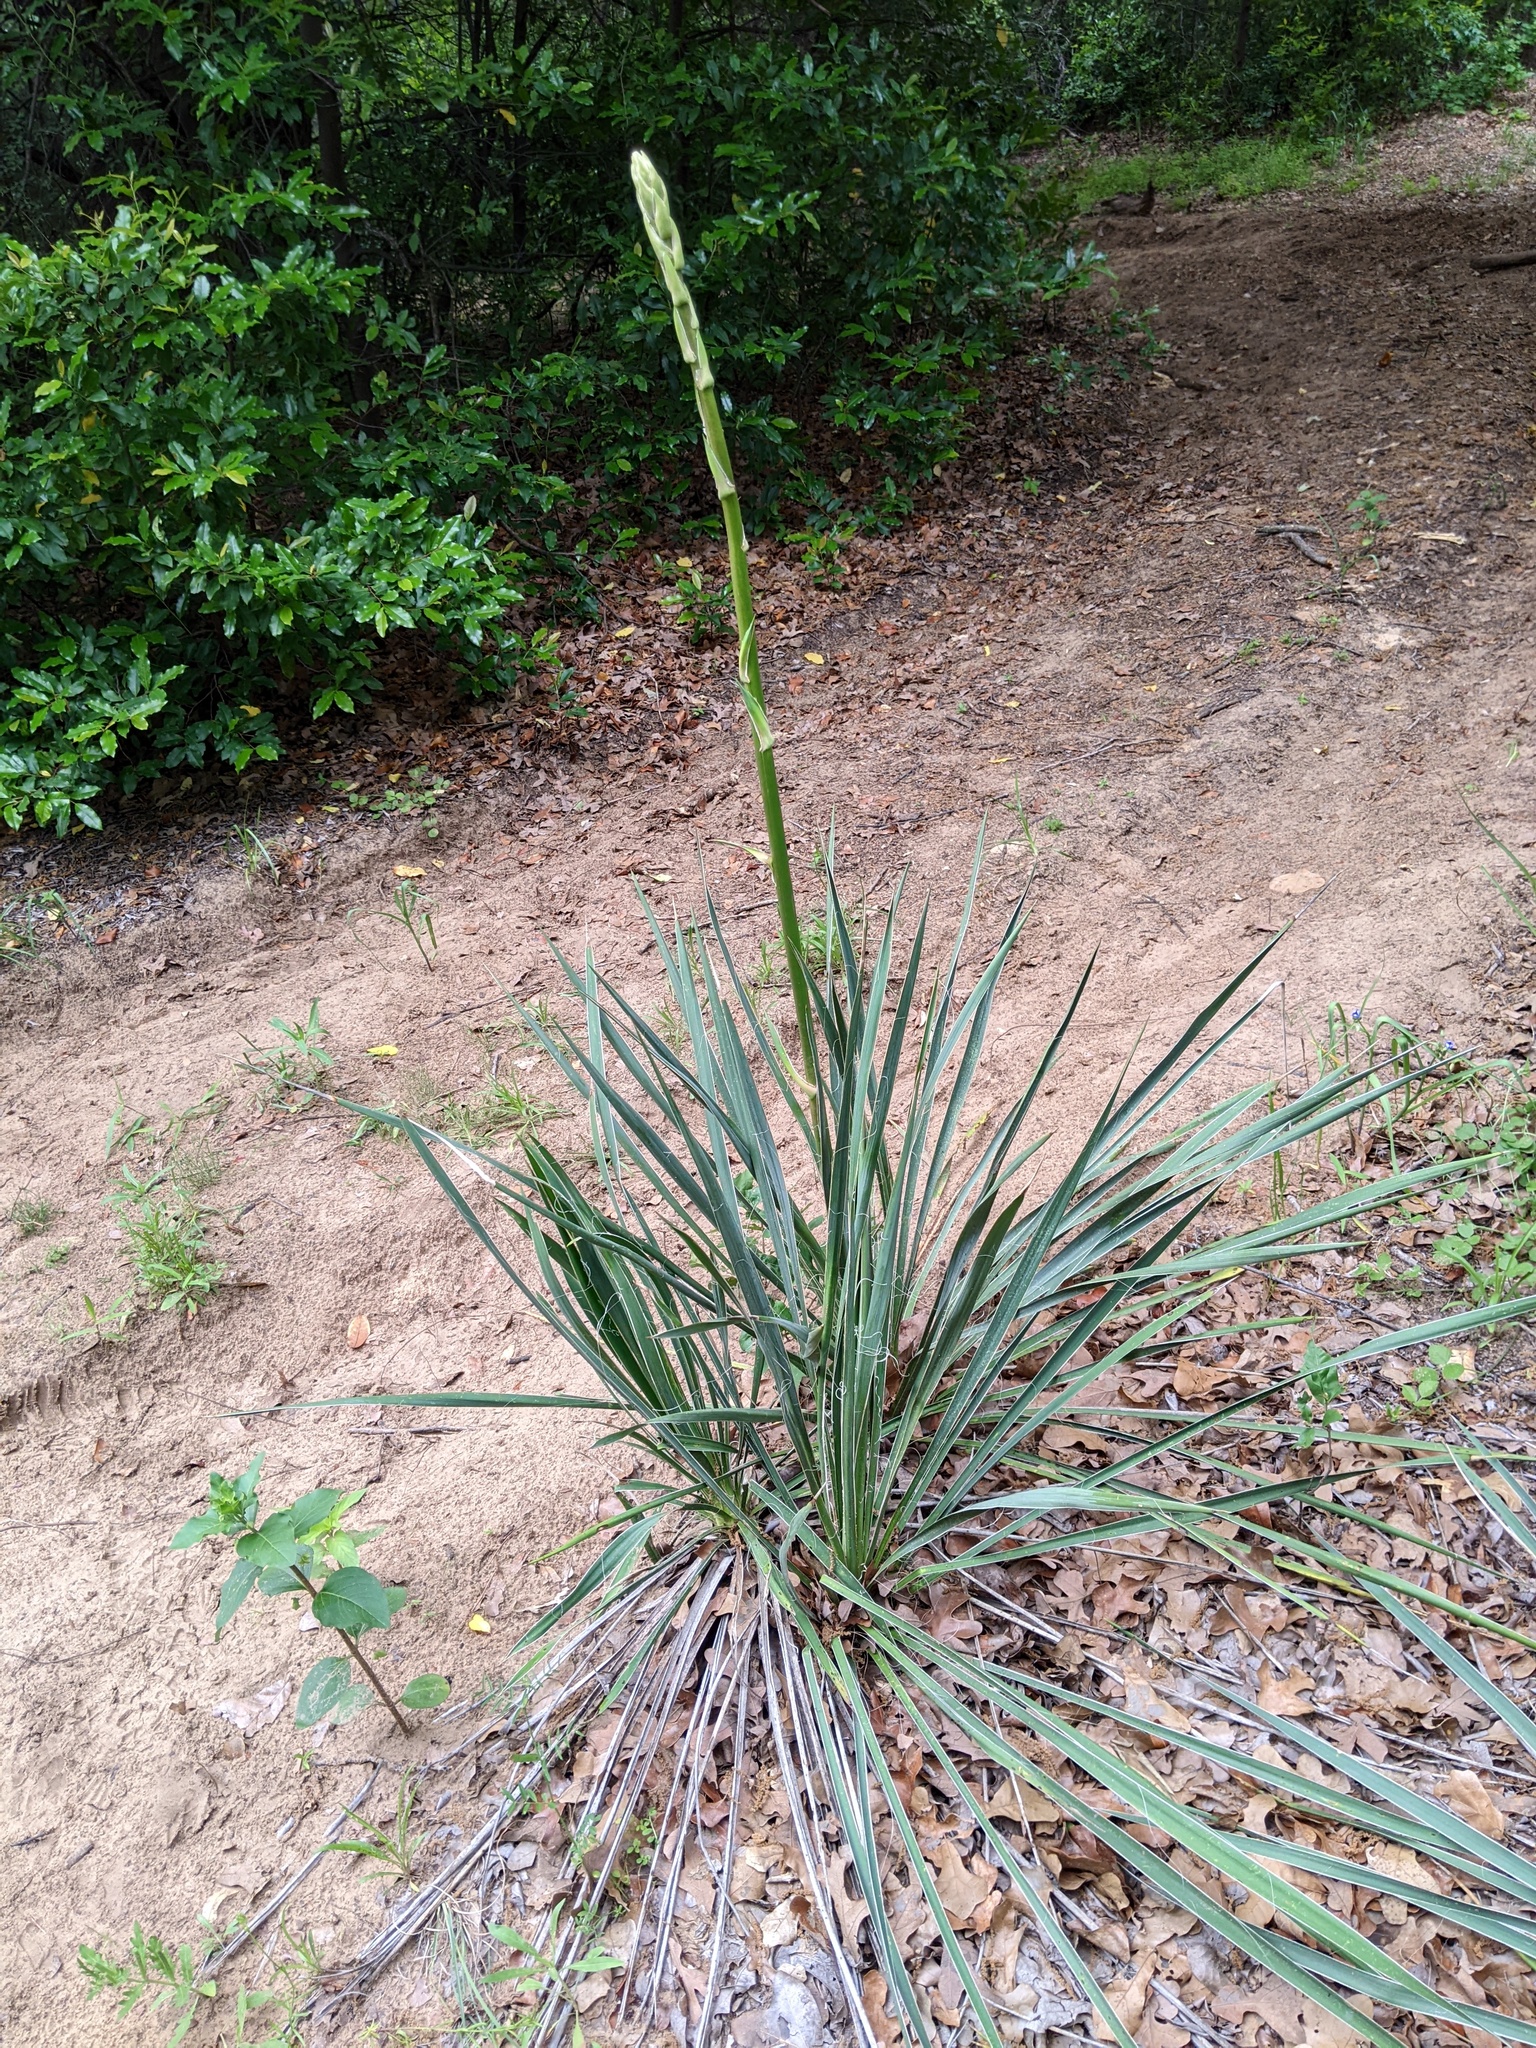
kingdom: Plantae
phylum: Tracheophyta
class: Liliopsida
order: Asparagales
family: Asparagaceae
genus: Yucca
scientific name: Yucca necopina
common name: Glen rose yucca
